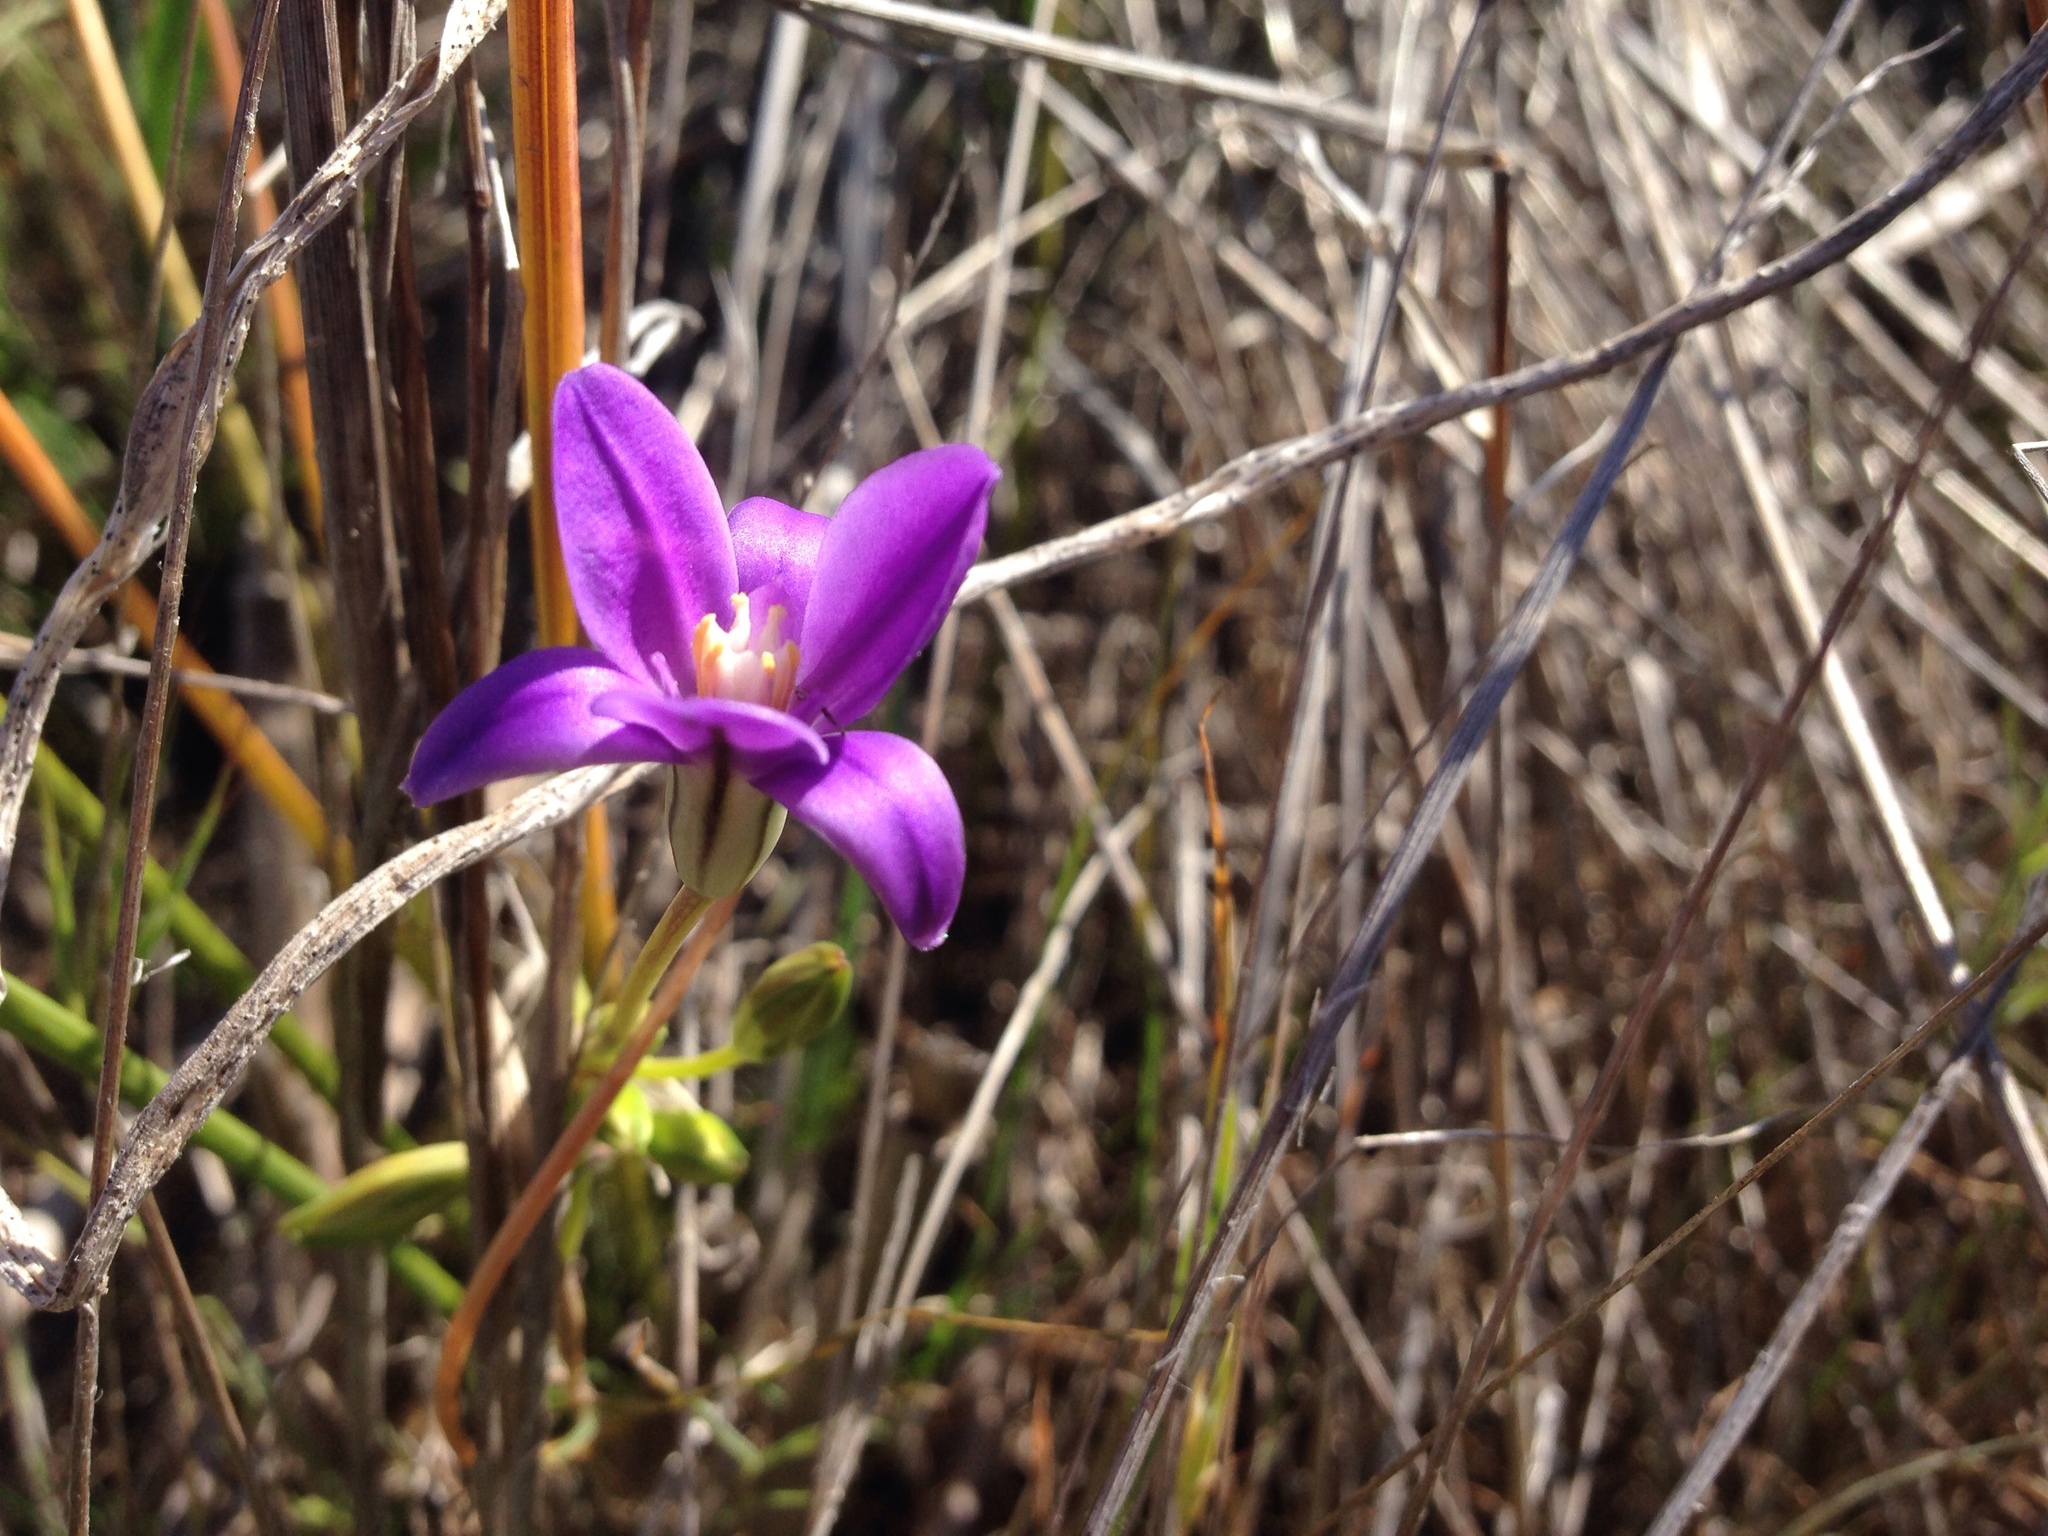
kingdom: Plantae
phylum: Tracheophyta
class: Liliopsida
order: Asparagales
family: Asparagaceae
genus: Brodiaea
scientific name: Brodiaea kinkiensis
